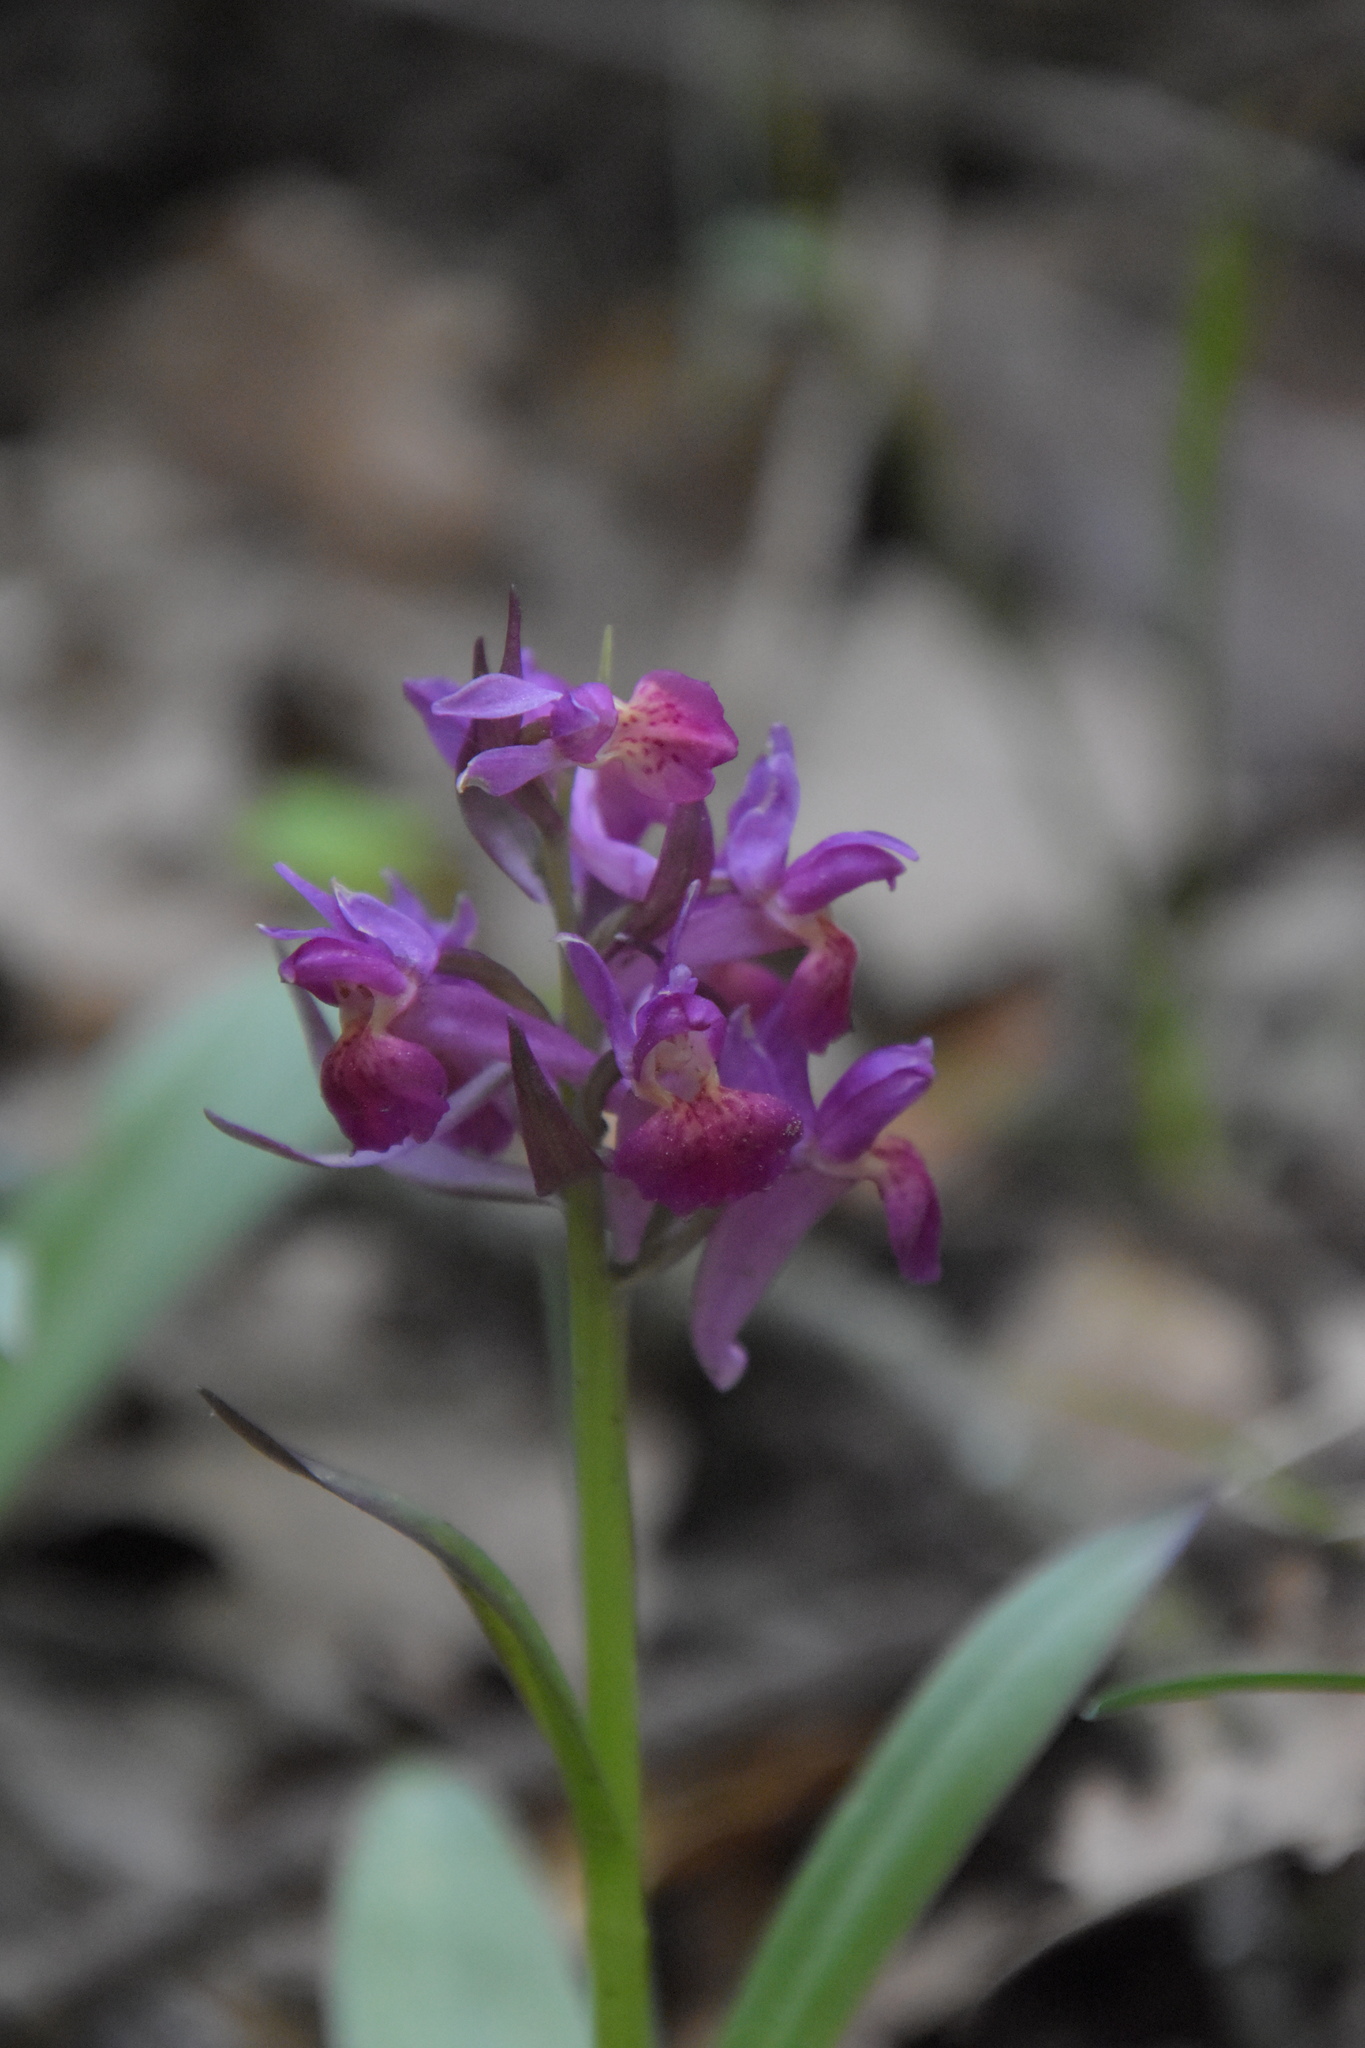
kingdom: Plantae
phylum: Tracheophyta
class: Liliopsida
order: Asparagales
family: Orchidaceae
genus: Dactylorhiza
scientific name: Dactylorhiza sambucina
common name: Elder-flowered orchid
